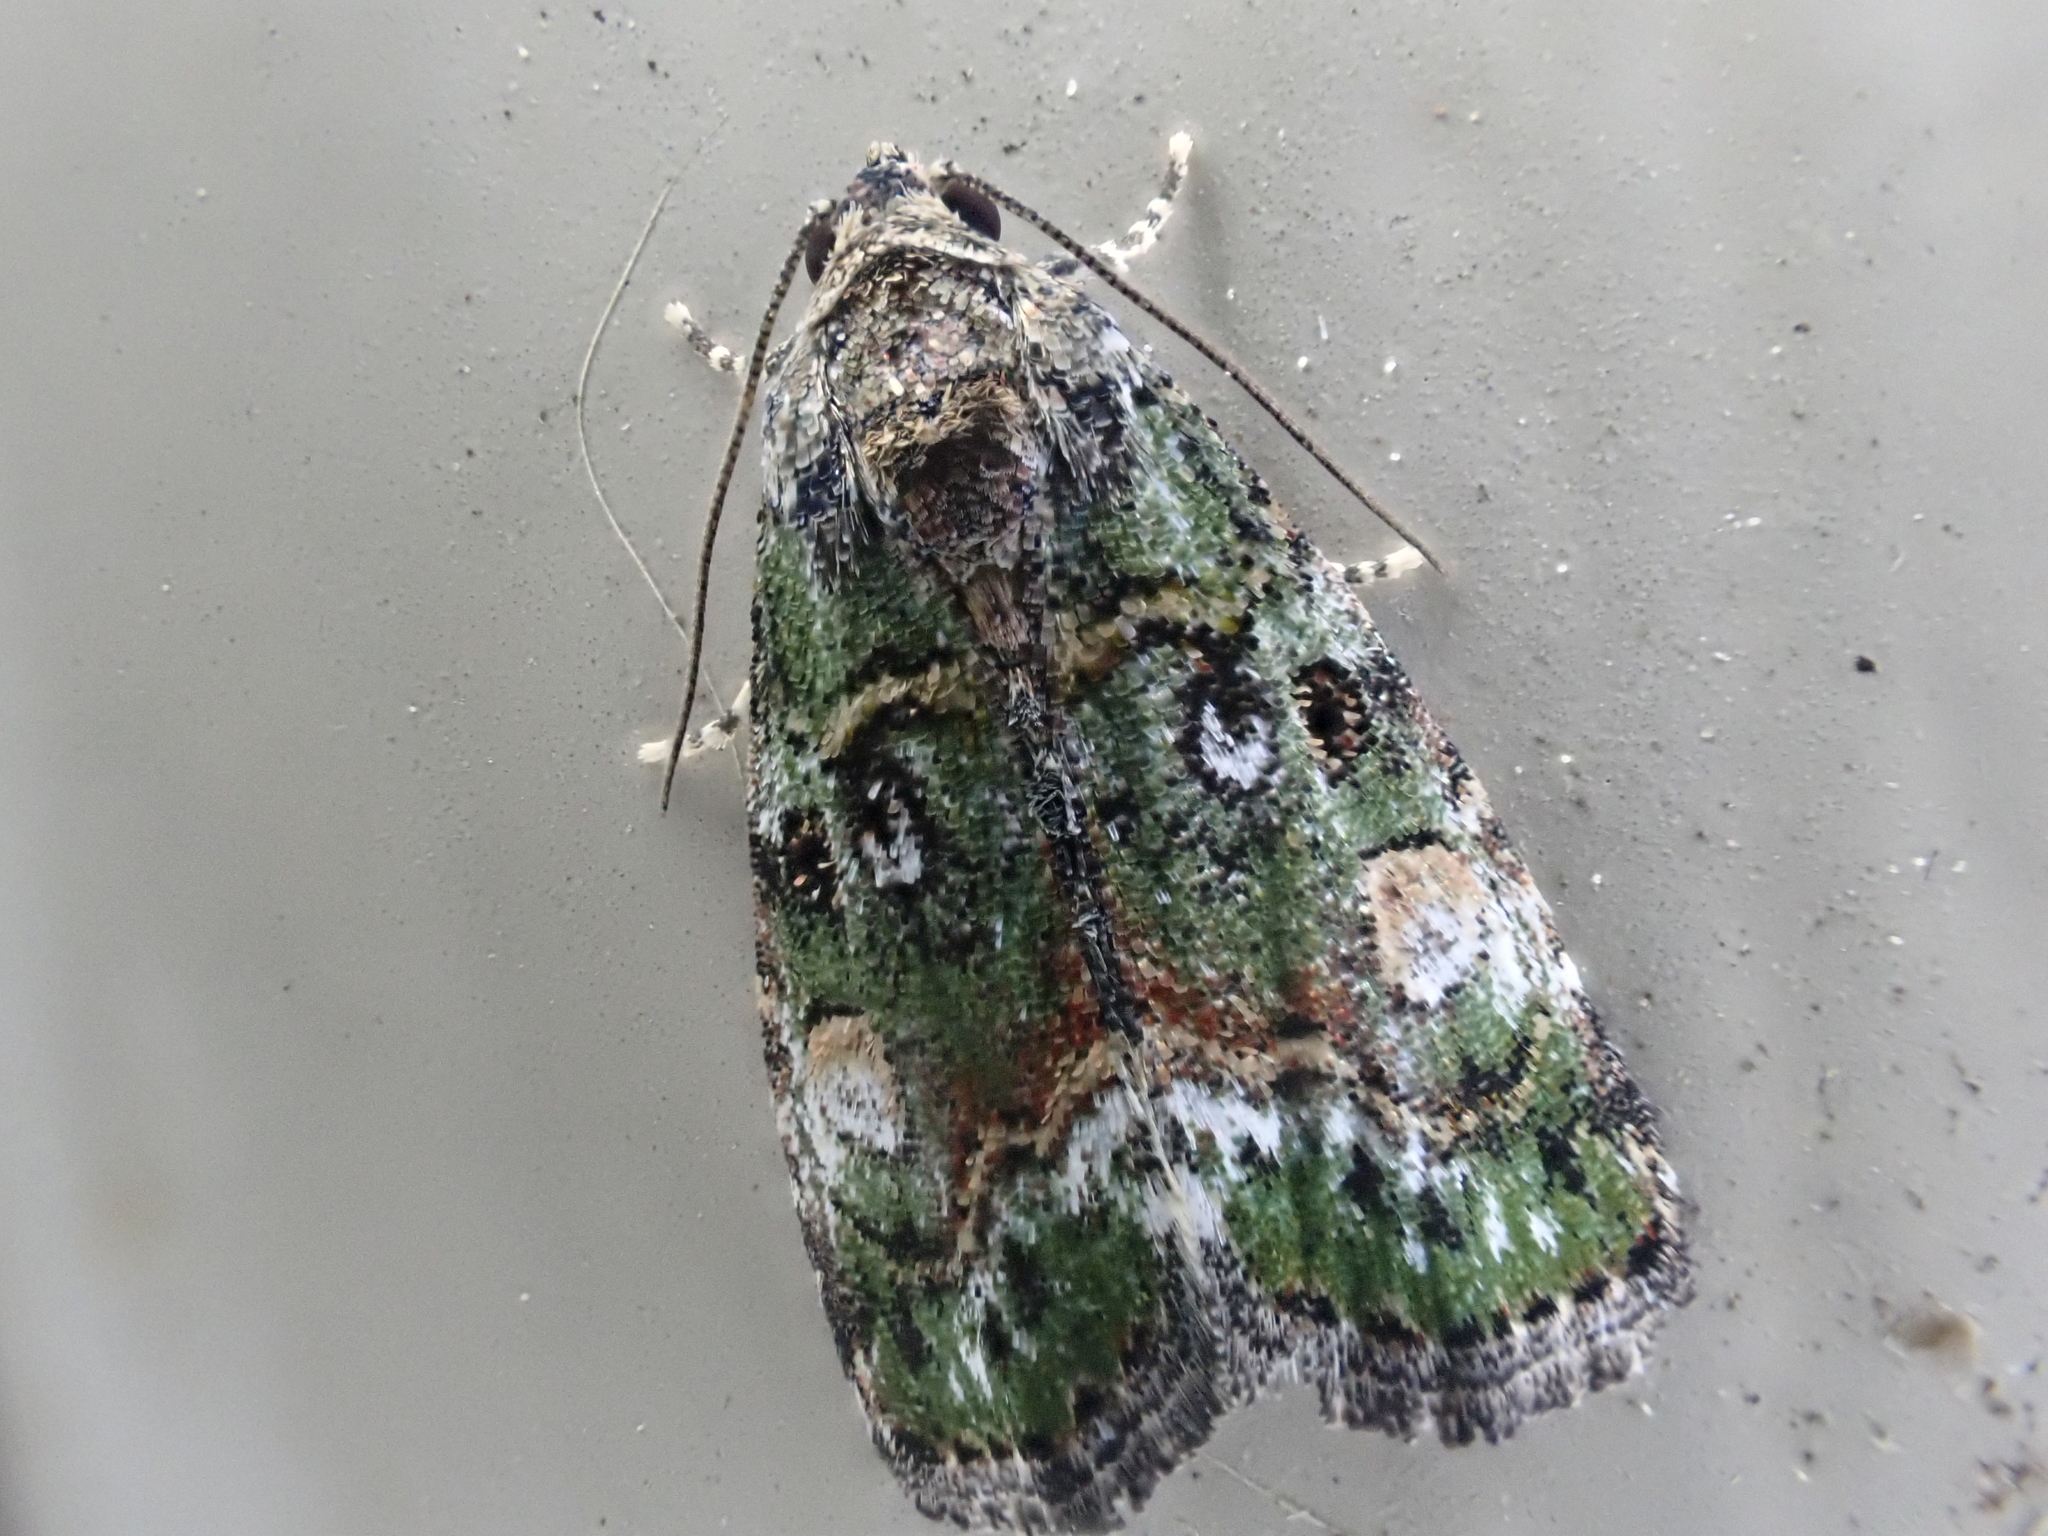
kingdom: Animalia
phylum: Arthropoda
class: Insecta
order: Lepidoptera
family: Noctuidae
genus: Lithacodia
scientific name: Lithacodia musta
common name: Small mossy glyph
